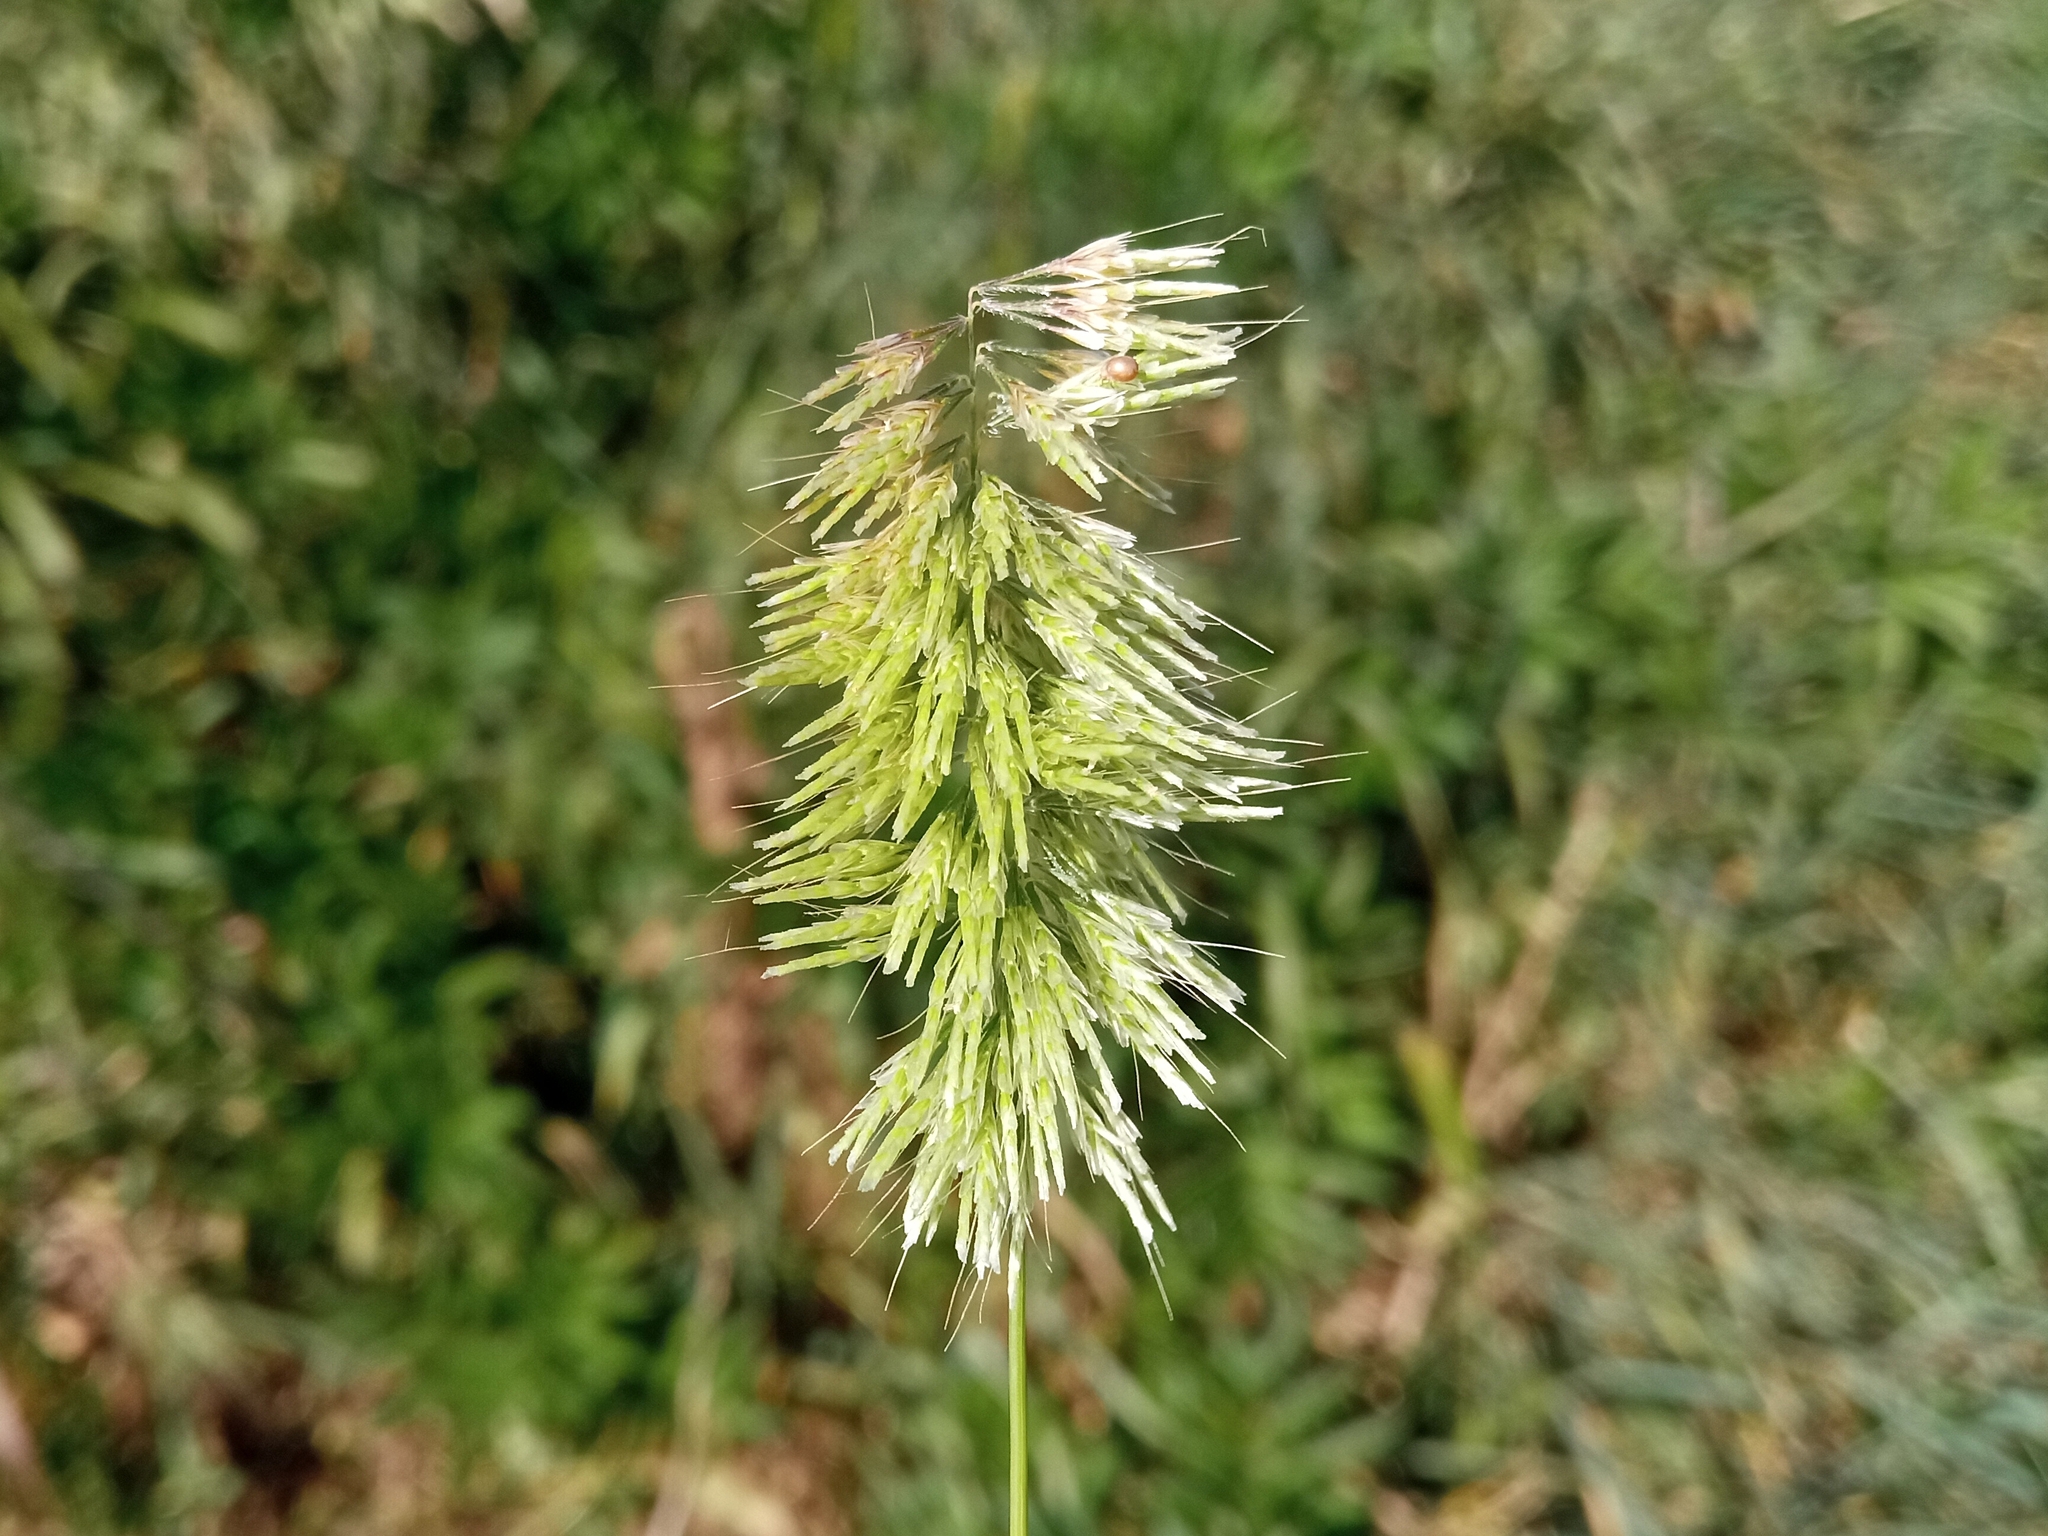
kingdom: Plantae
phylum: Tracheophyta
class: Liliopsida
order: Poales
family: Poaceae
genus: Lamarckia
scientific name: Lamarckia aurea
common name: Golden dog's-tail
